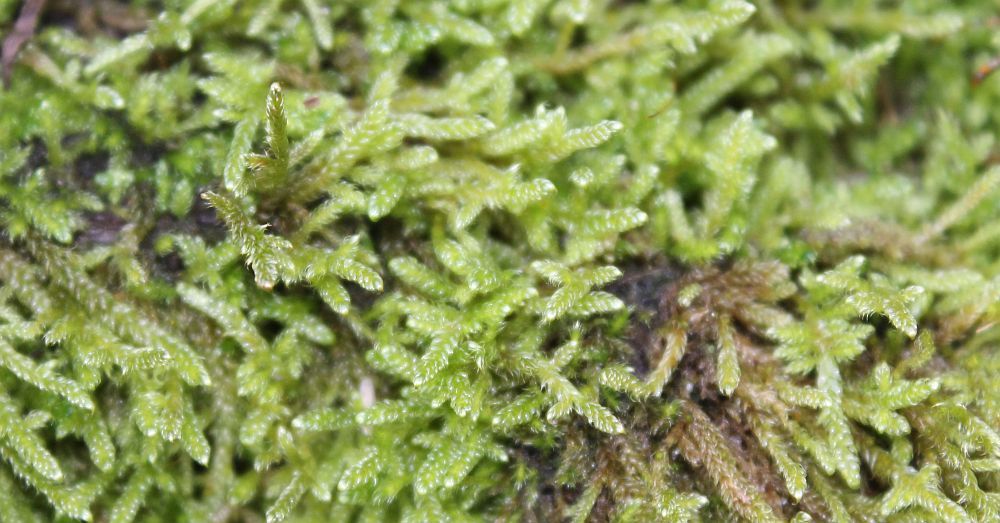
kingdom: Plantae
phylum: Bryophyta
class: Bryopsida
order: Hypnales
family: Hypnaceae
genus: Hypnum
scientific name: Hypnum cupressiforme
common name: Cypress-leaved plait-moss
